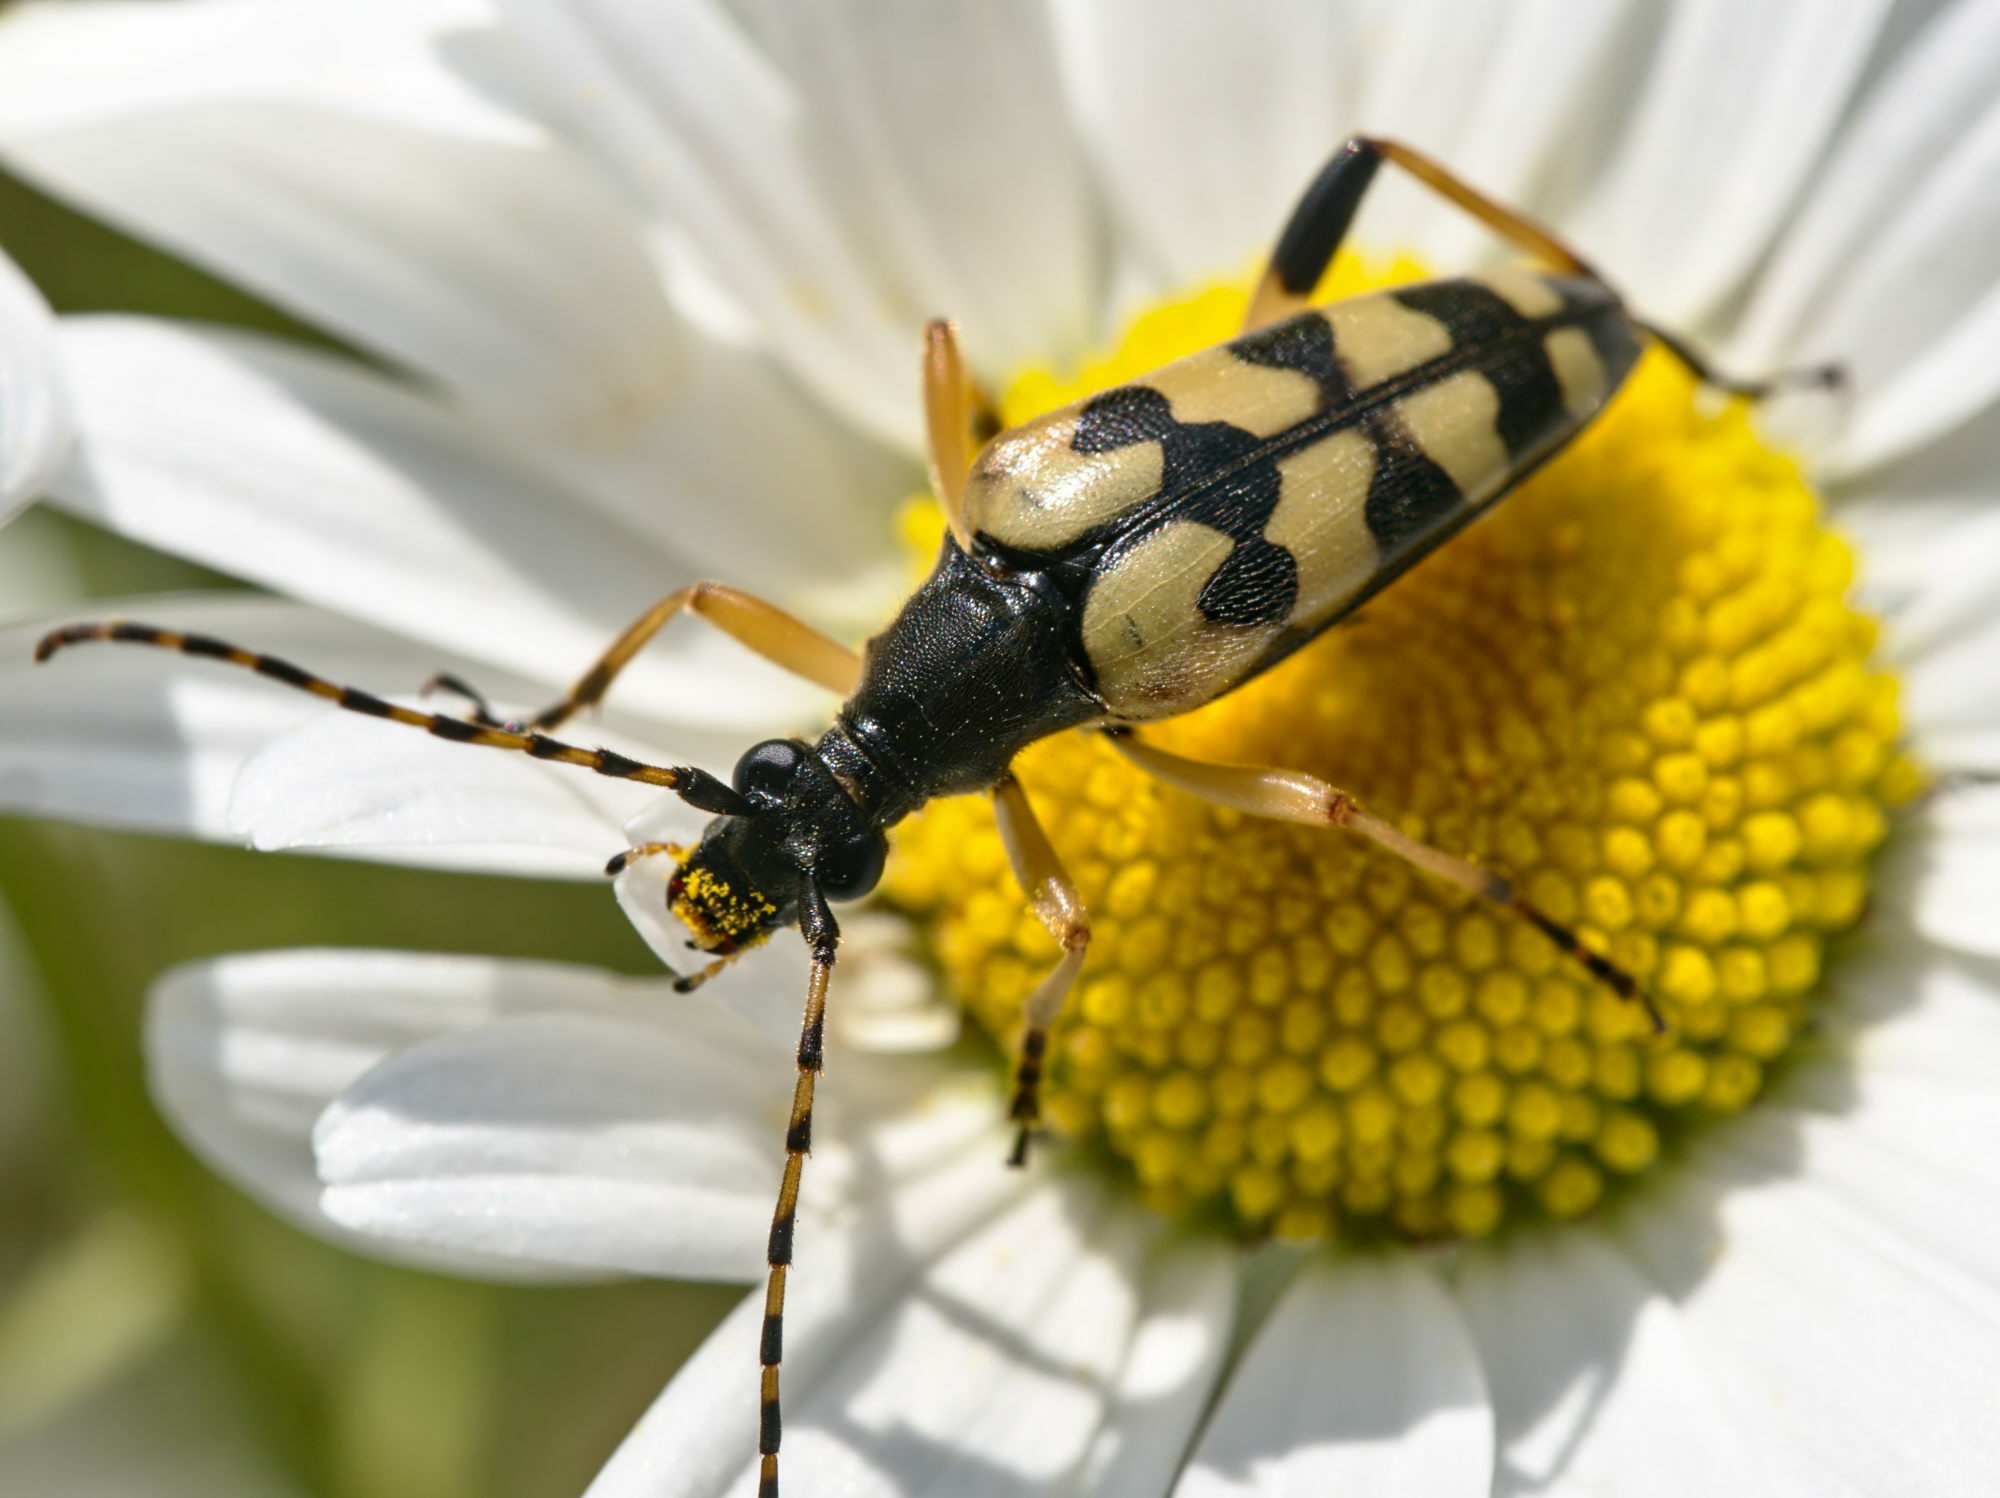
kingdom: Animalia
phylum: Arthropoda
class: Insecta
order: Coleoptera
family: Cerambycidae
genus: Rutpela
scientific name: Rutpela maculata
